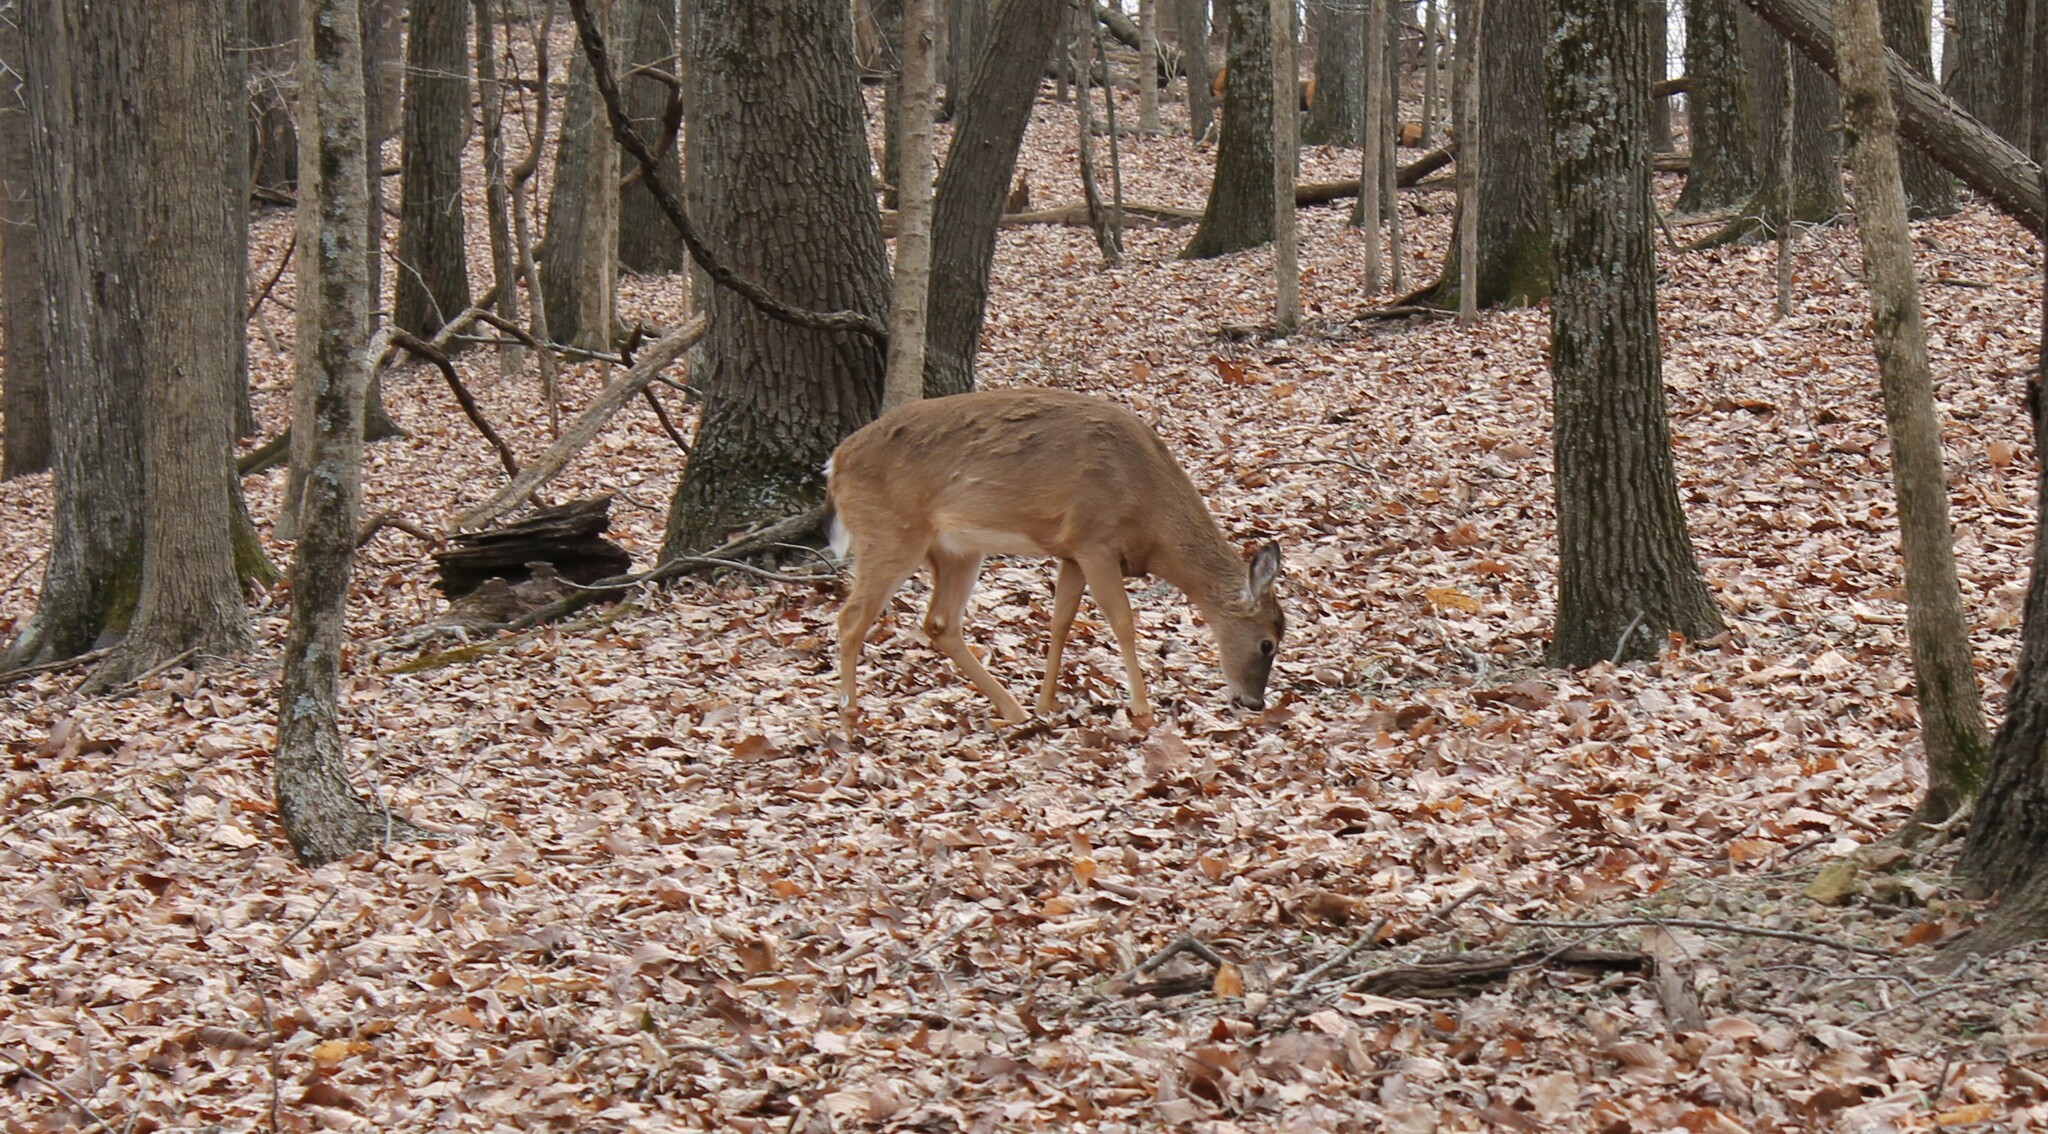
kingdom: Animalia
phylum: Chordata
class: Mammalia
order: Artiodactyla
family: Cervidae
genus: Odocoileus
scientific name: Odocoileus virginianus
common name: White-tailed deer
